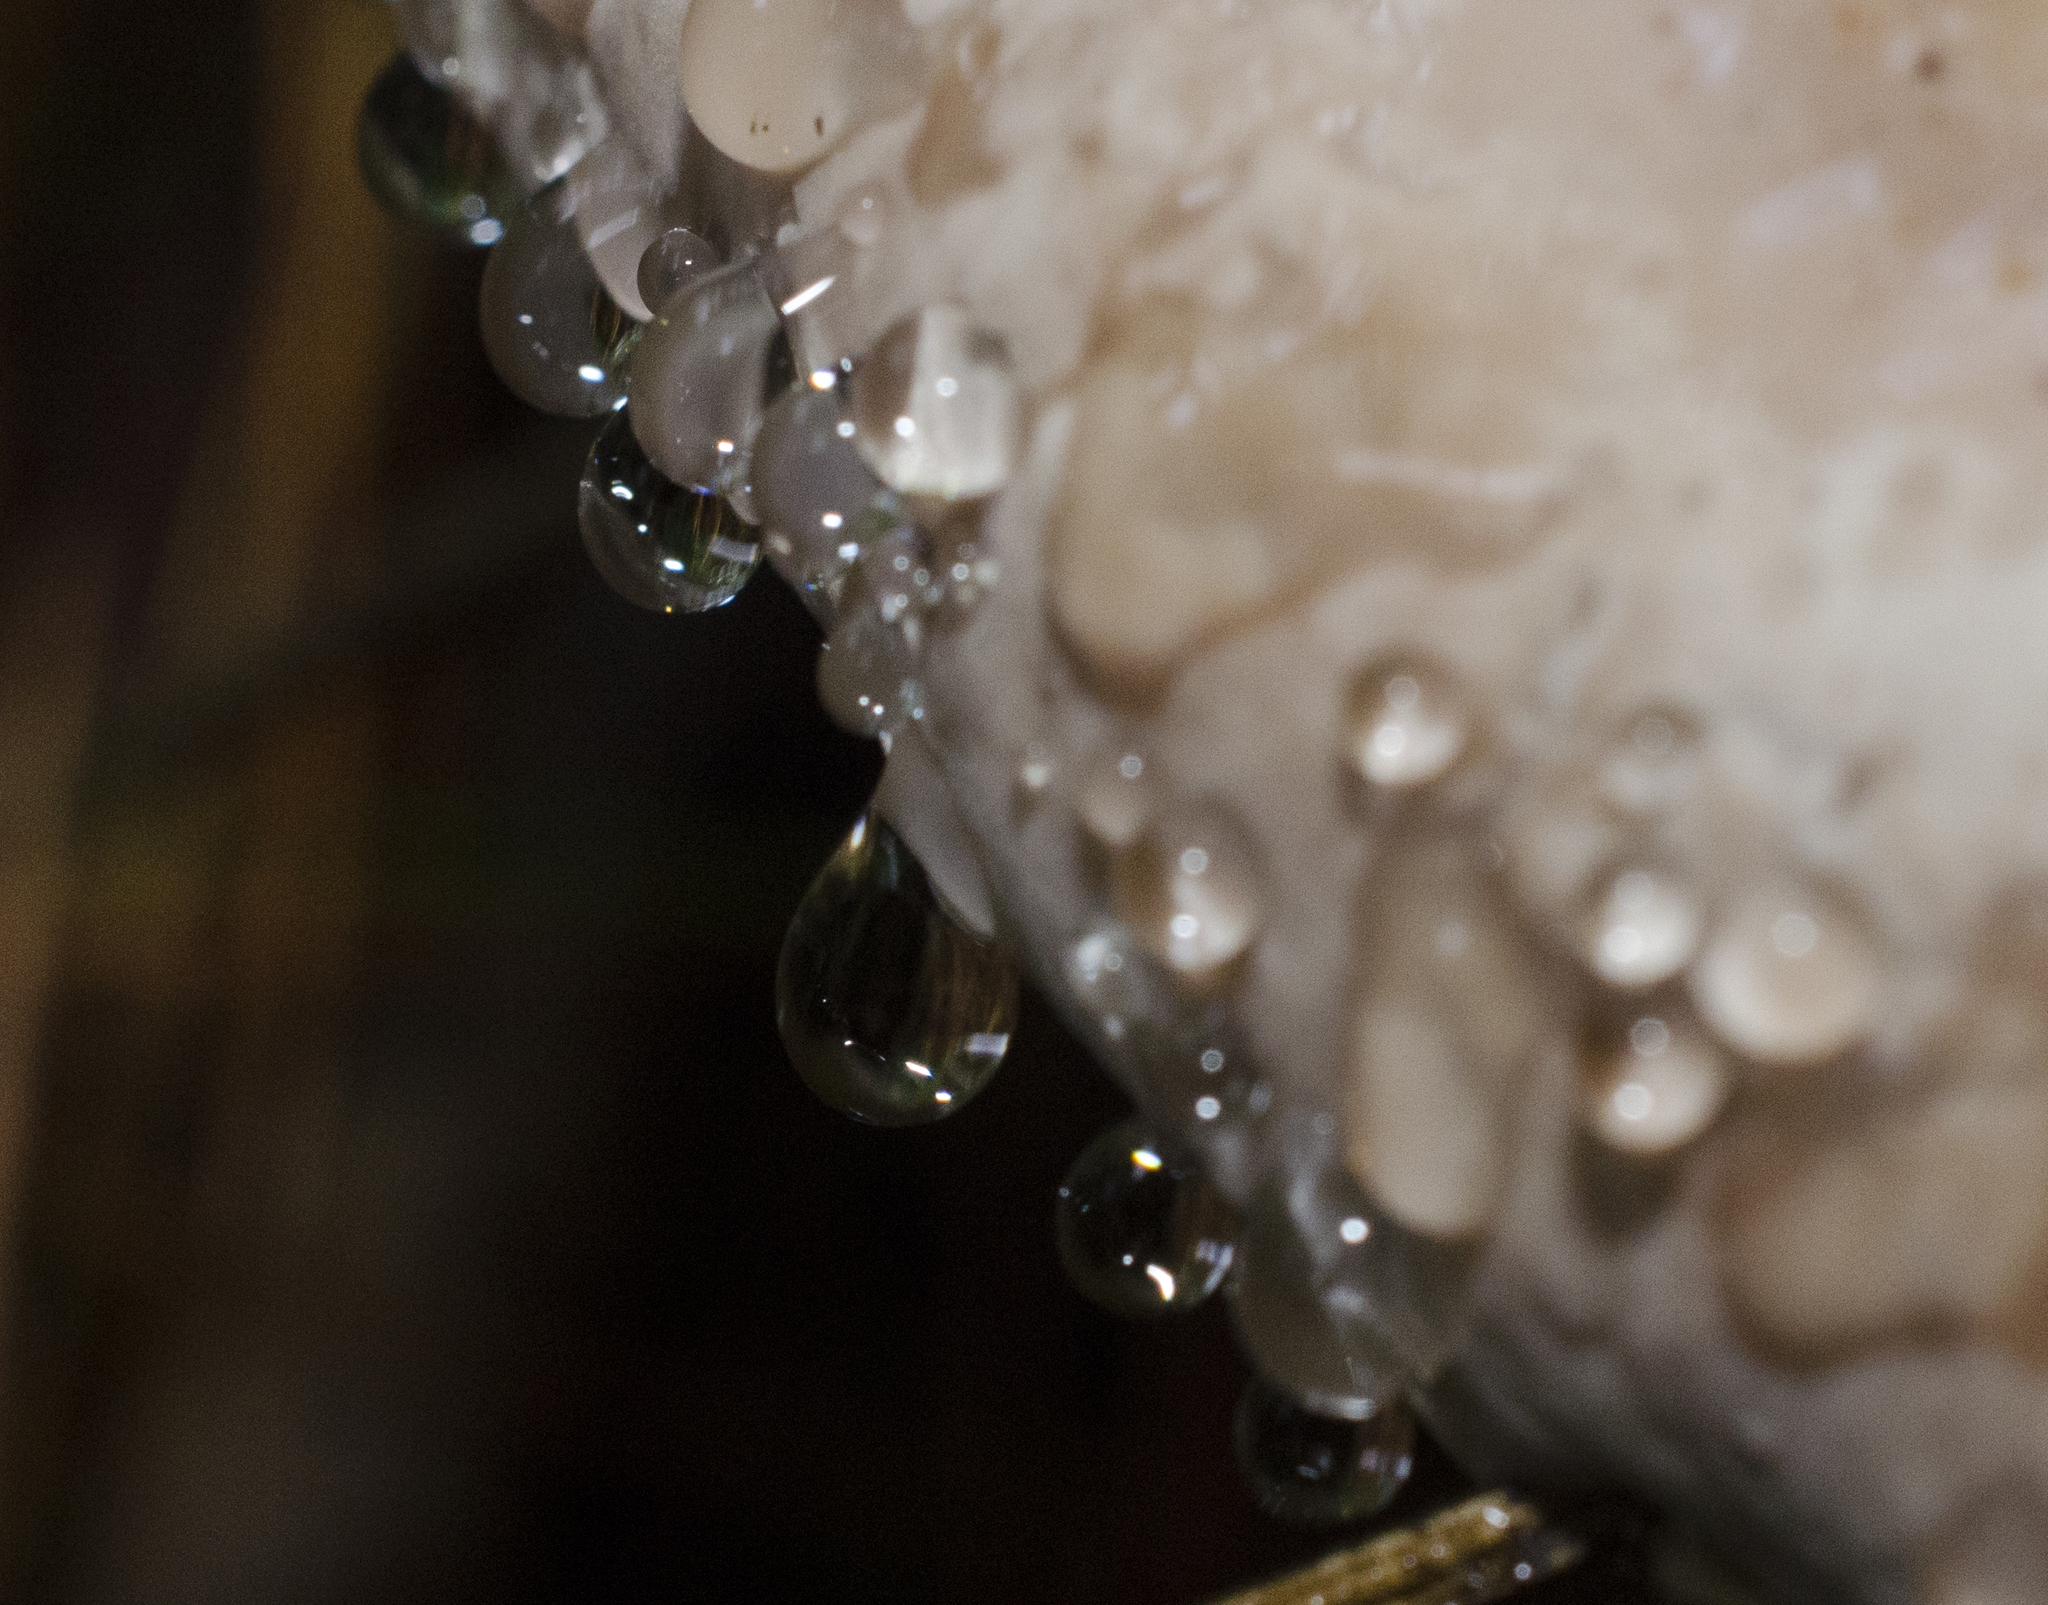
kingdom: Fungi
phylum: Basidiomycota
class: Agaricomycetes
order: Polyporales
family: Fomitopsidaceae
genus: Fomitopsis
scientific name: Fomitopsis mounceae
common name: Northern red belt
